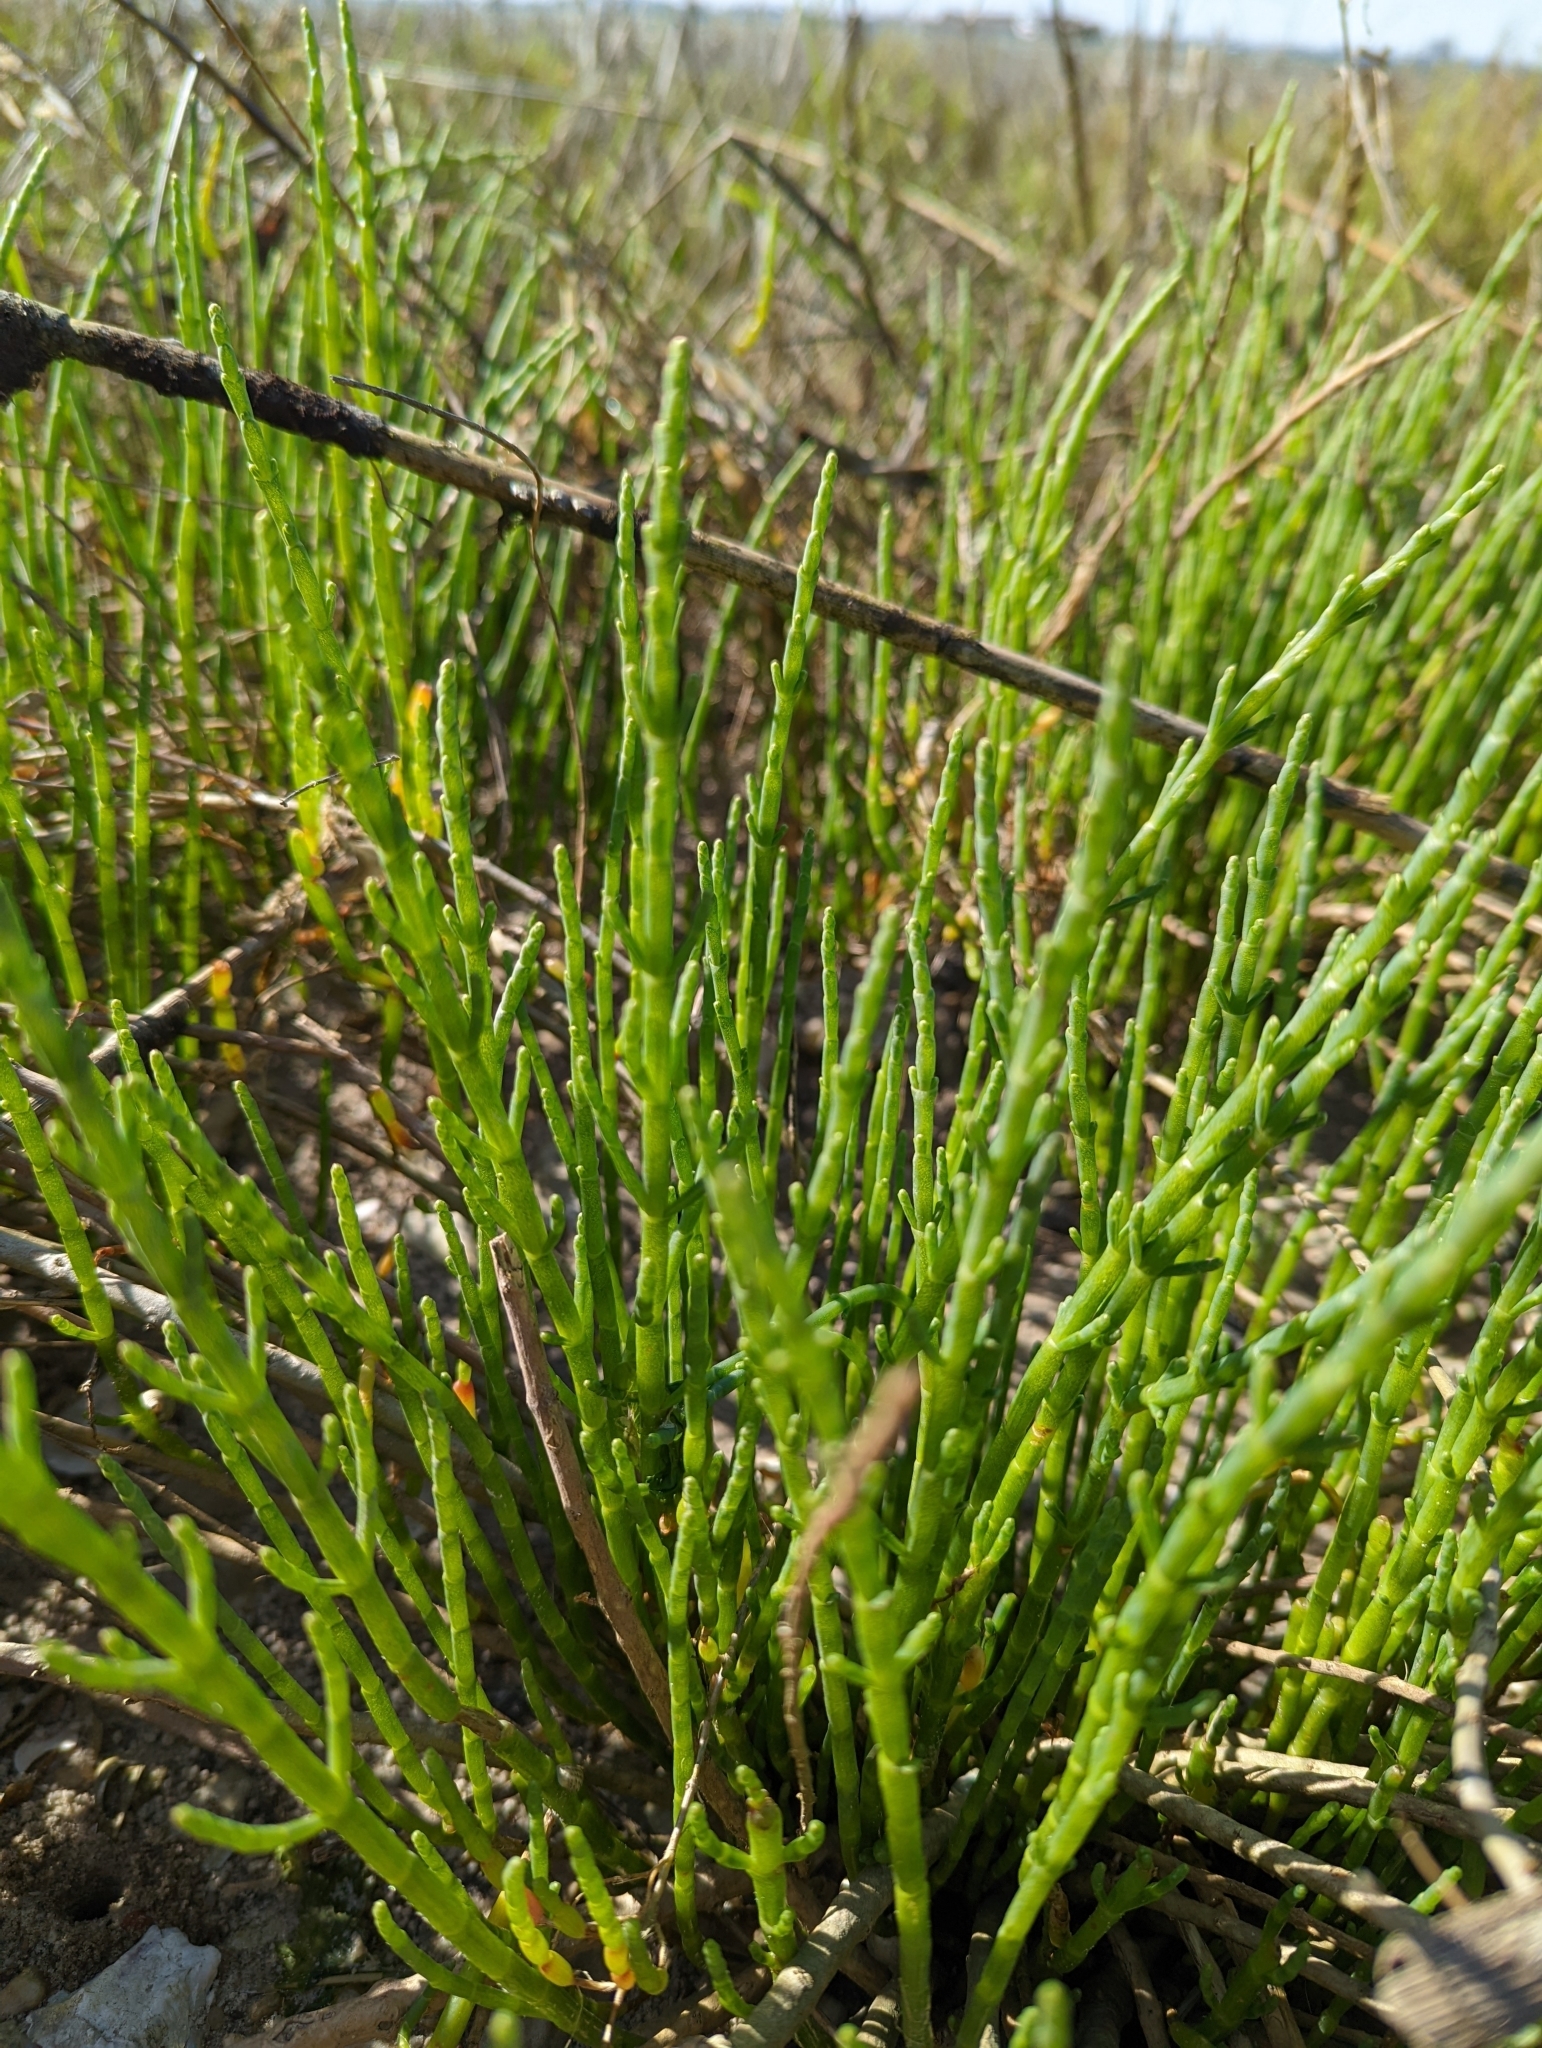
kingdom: Plantae
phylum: Tracheophyta
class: Magnoliopsida
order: Caryophyllales
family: Amaranthaceae
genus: Salicornia
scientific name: Salicornia virginica
